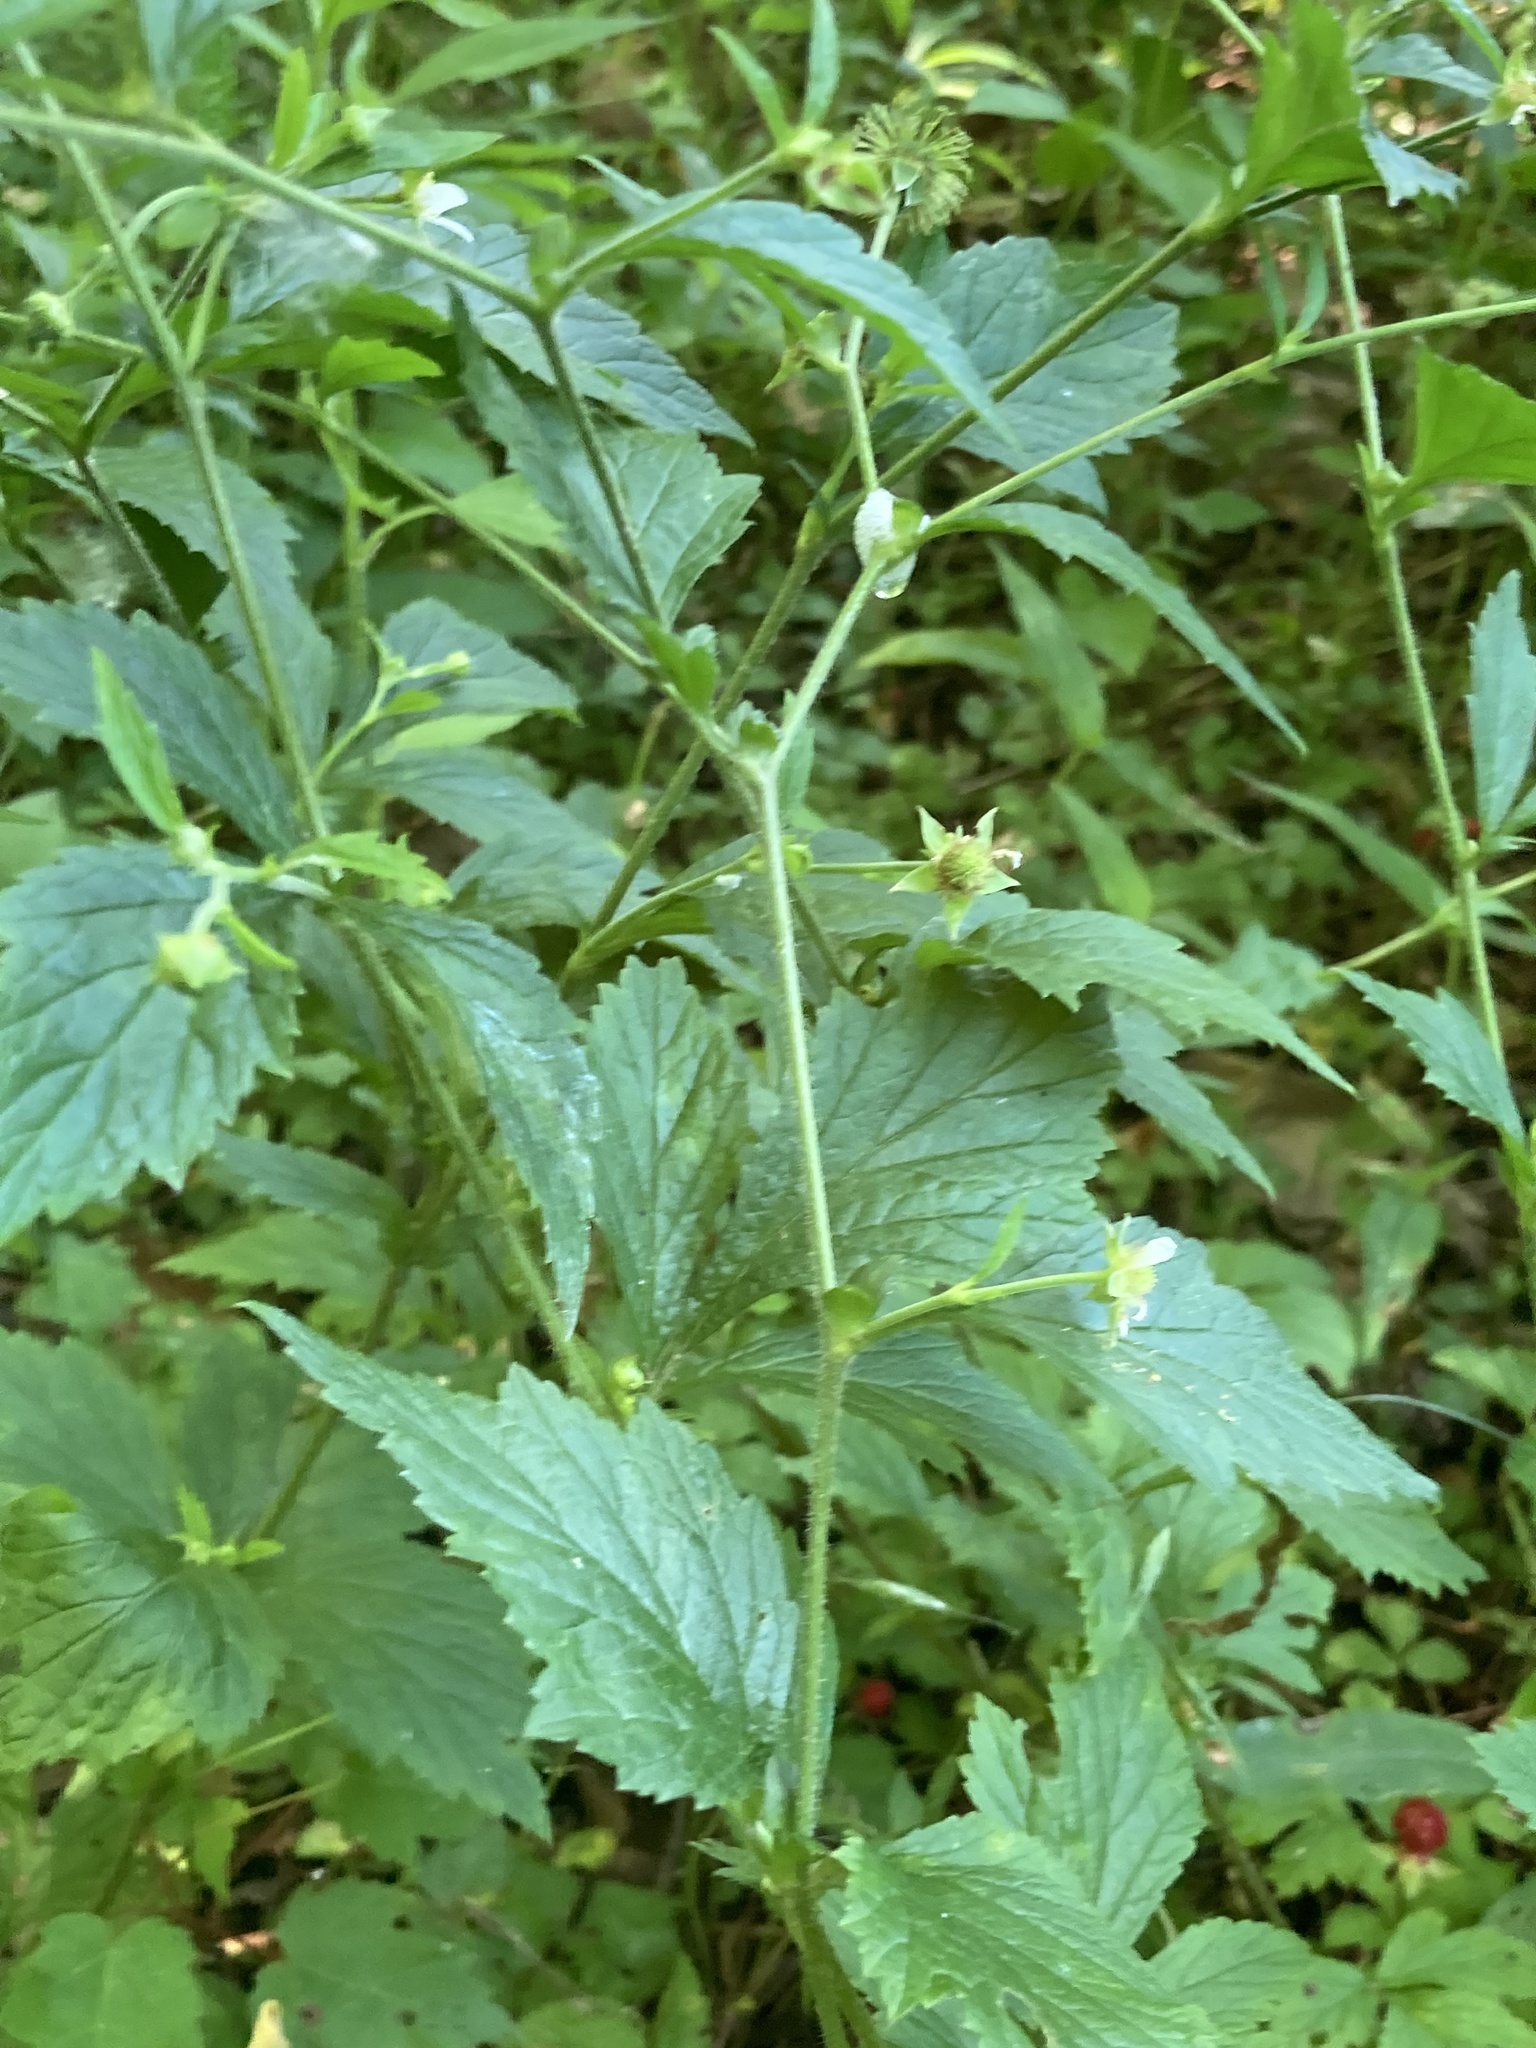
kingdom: Plantae
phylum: Tracheophyta
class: Magnoliopsida
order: Rosales
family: Rosaceae
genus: Geum
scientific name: Geum canadense
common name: White avens
